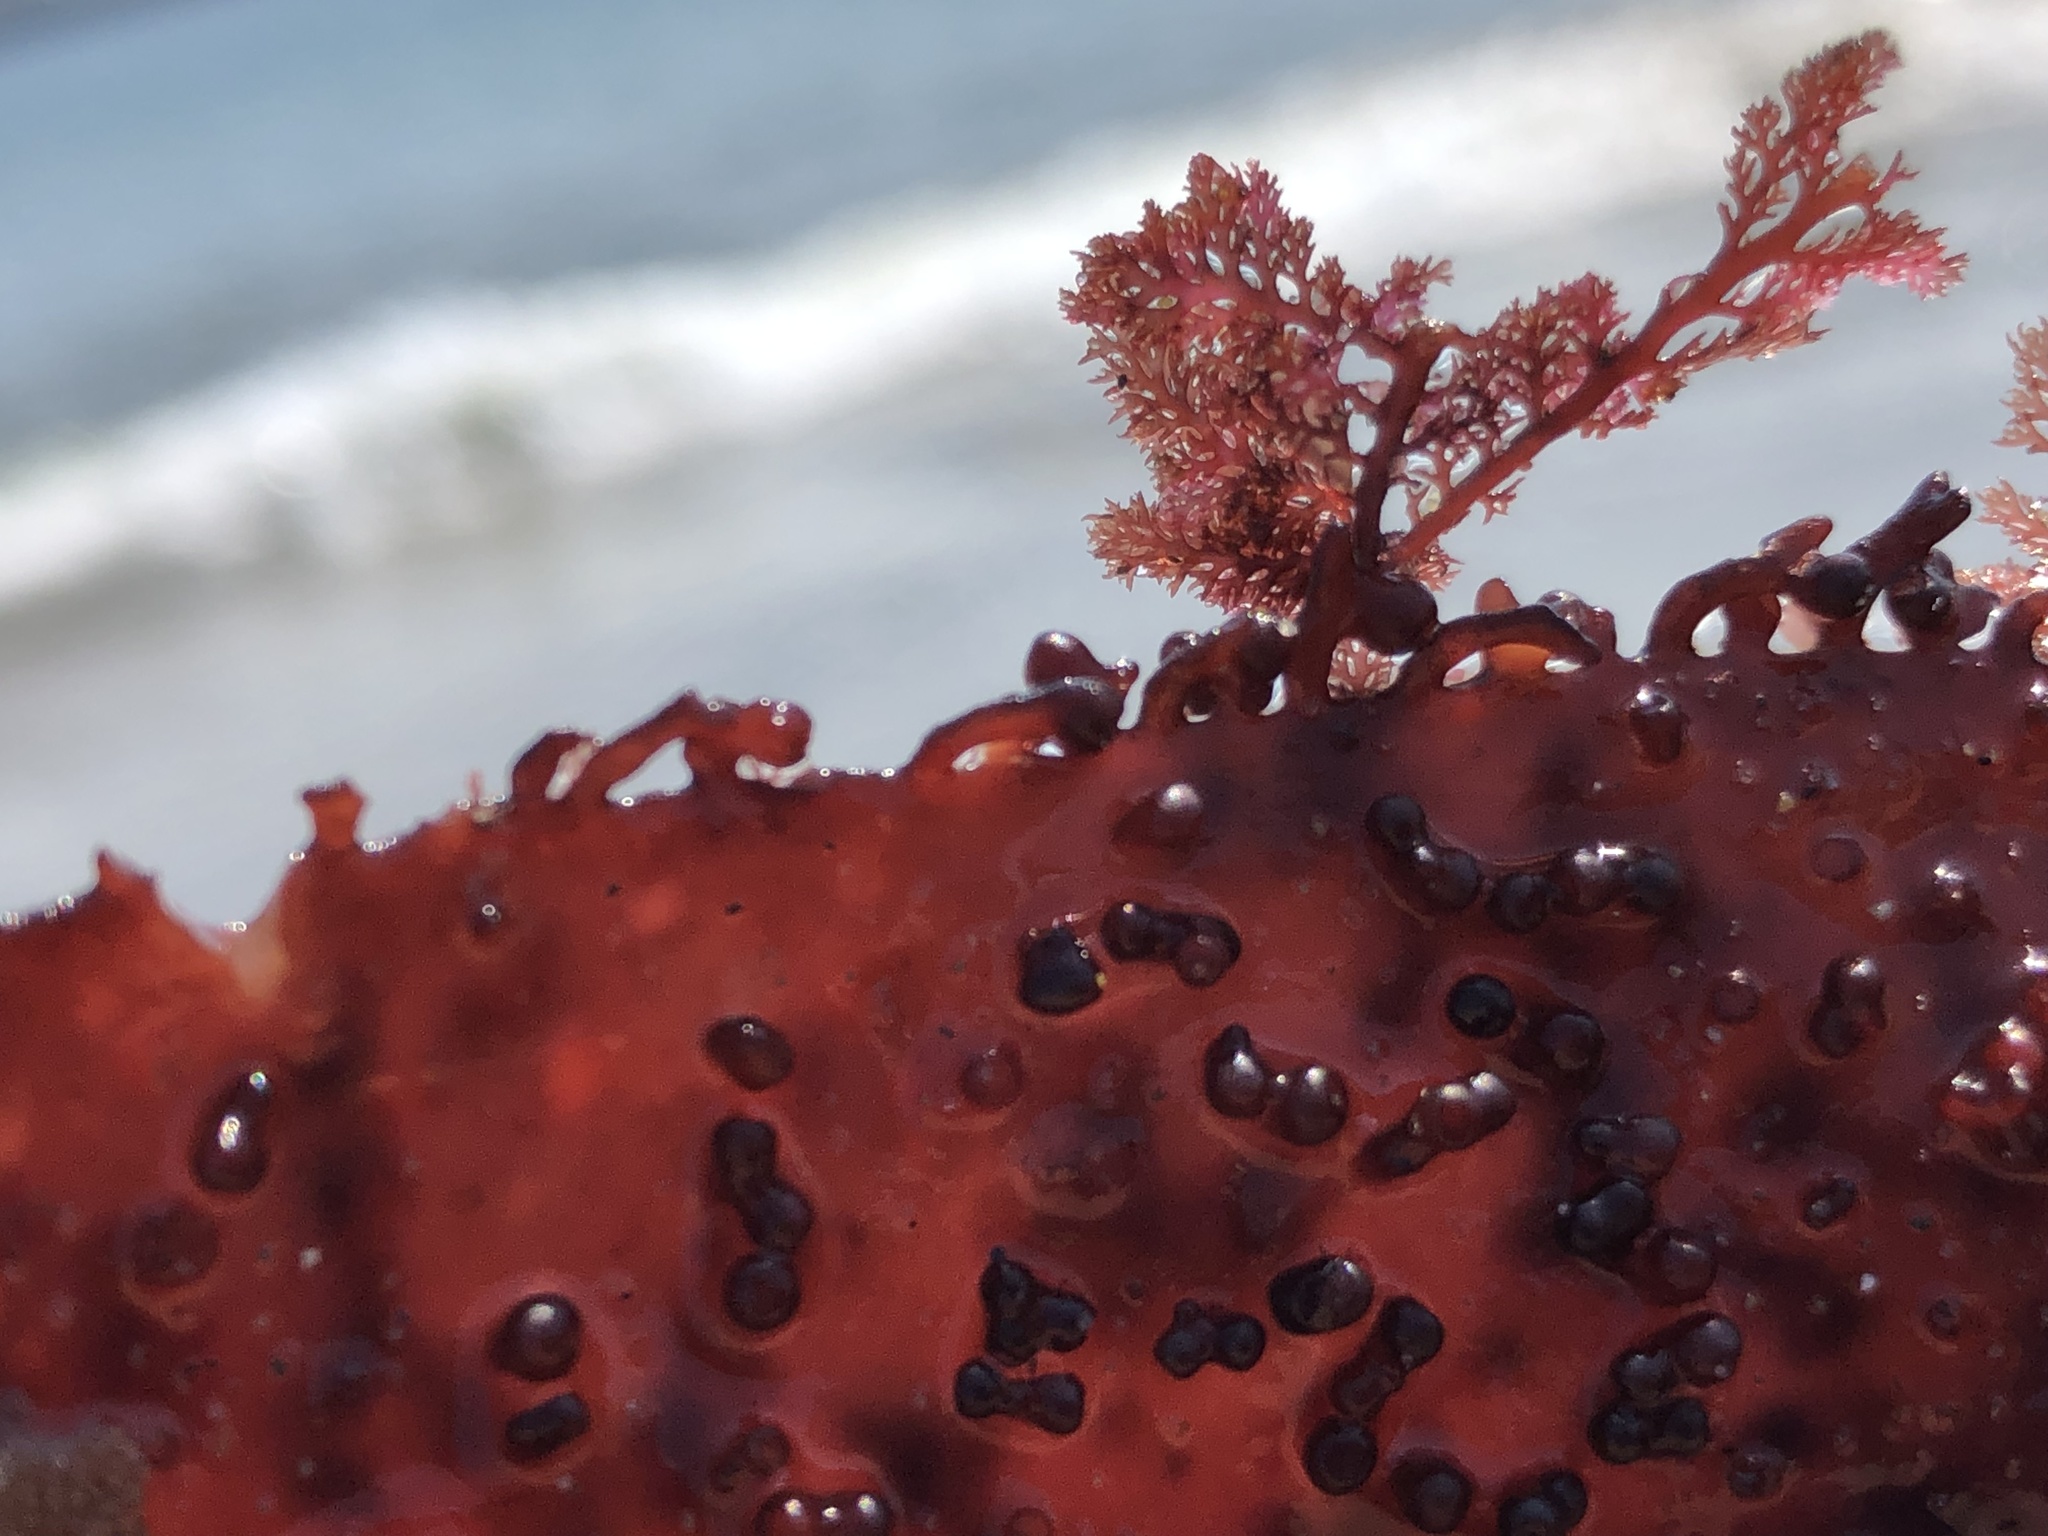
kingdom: Plantae
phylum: Rhodophyta
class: Florideophyceae
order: Ceramiales
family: Ceramiaceae
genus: Microcladia
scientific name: Microcladia coulteri
